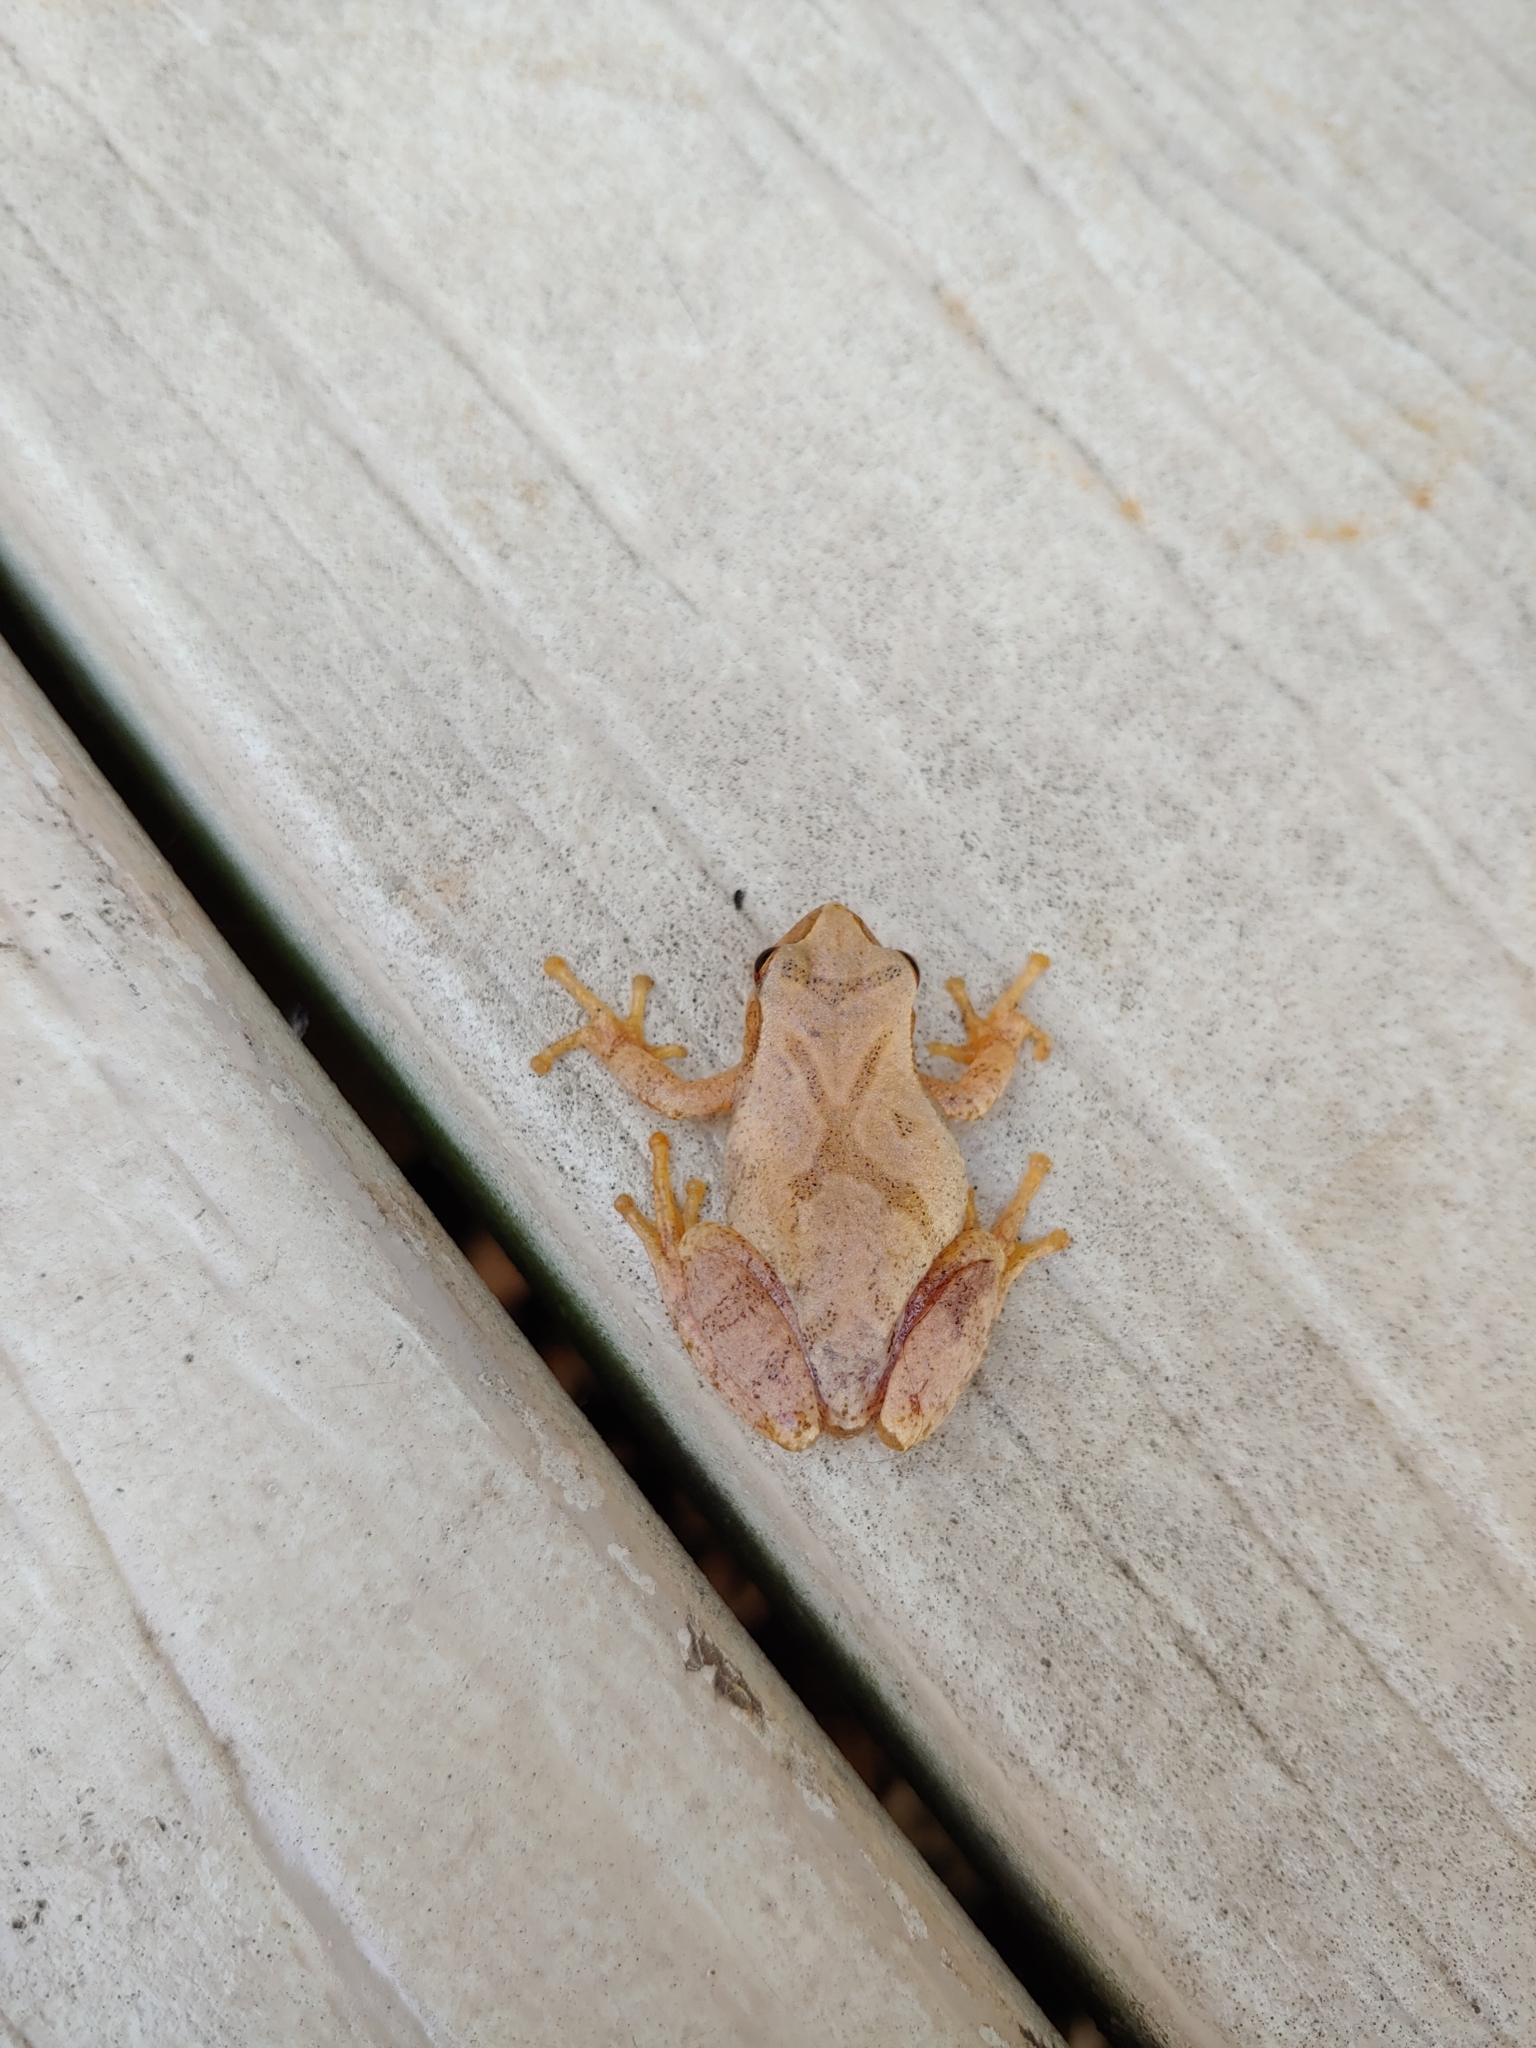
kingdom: Animalia
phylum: Chordata
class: Amphibia
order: Anura
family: Hylidae
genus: Pseudacris
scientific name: Pseudacris crucifer
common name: Spring peeper
